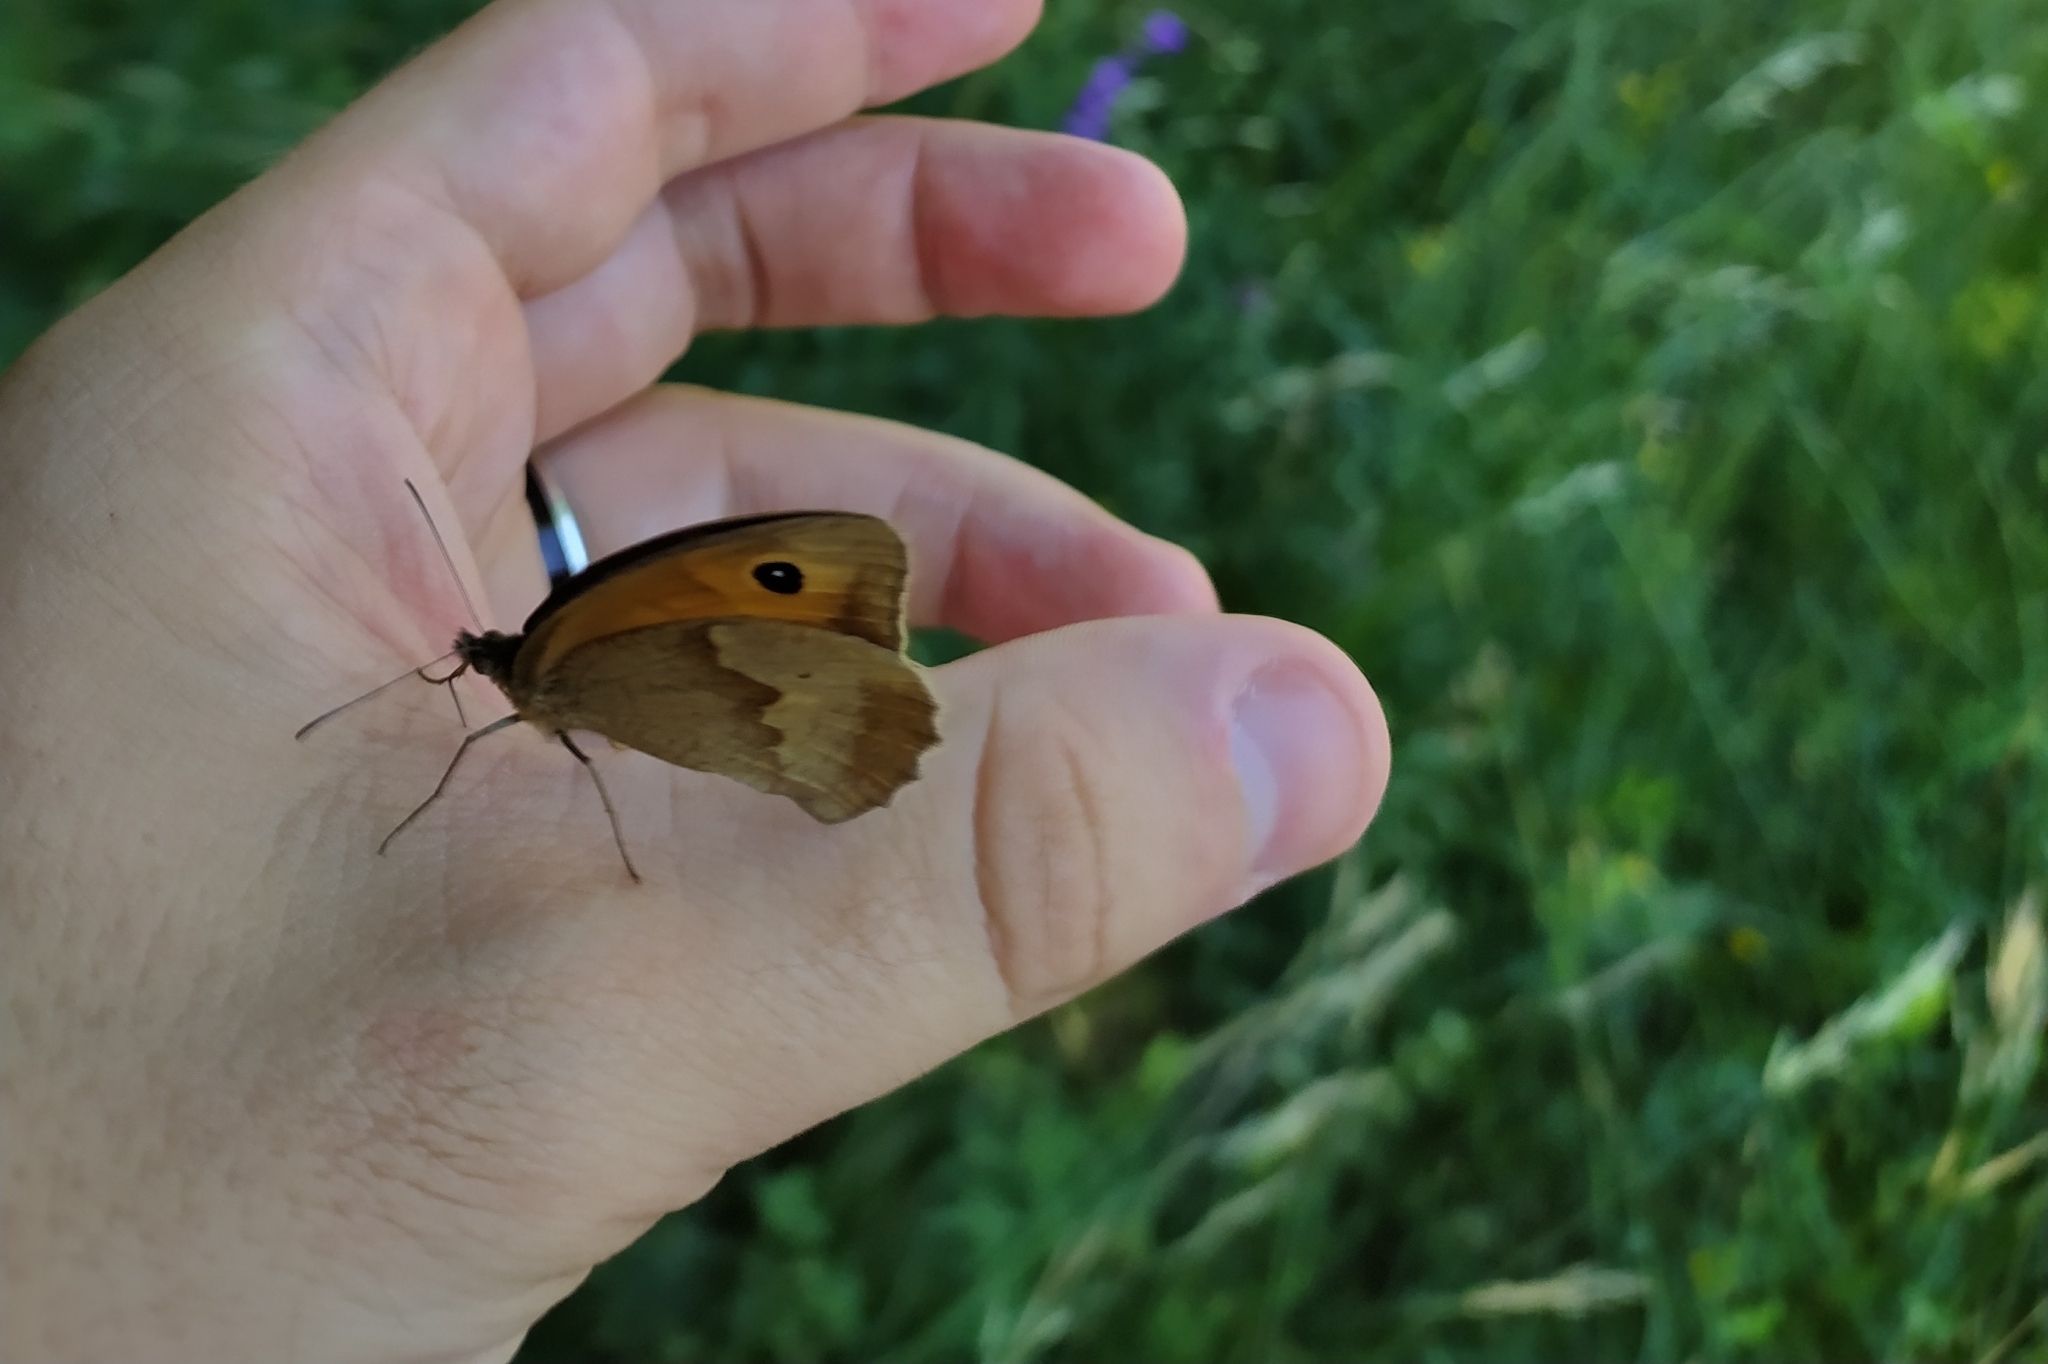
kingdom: Animalia
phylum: Arthropoda
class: Insecta
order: Lepidoptera
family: Nymphalidae
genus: Maniola
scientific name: Maniola jurtina
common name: Meadow brown
